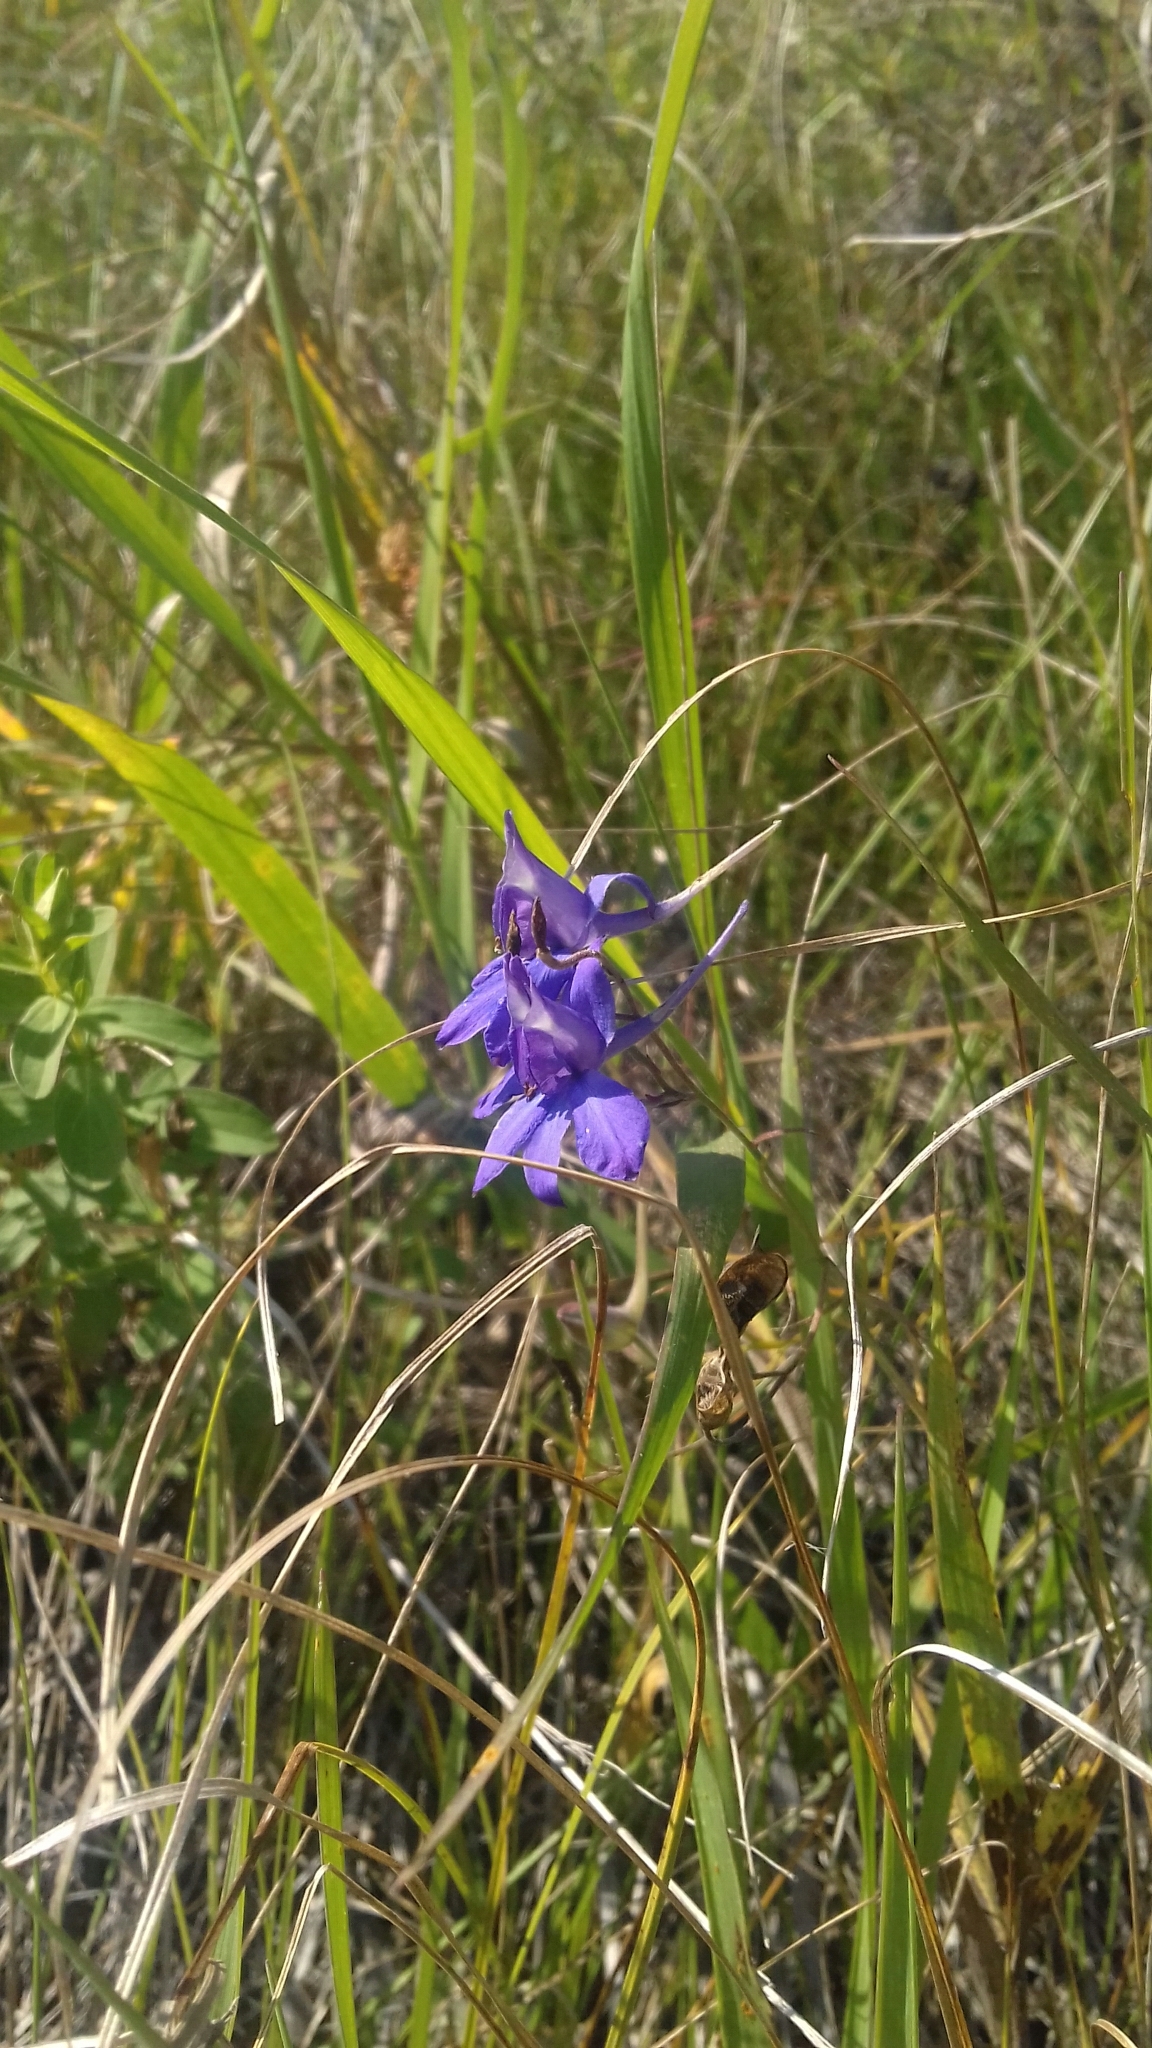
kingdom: Plantae
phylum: Tracheophyta
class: Magnoliopsida
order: Ranunculales
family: Ranunculaceae
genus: Delphinium
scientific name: Delphinium consolida
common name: Branching larkspur
